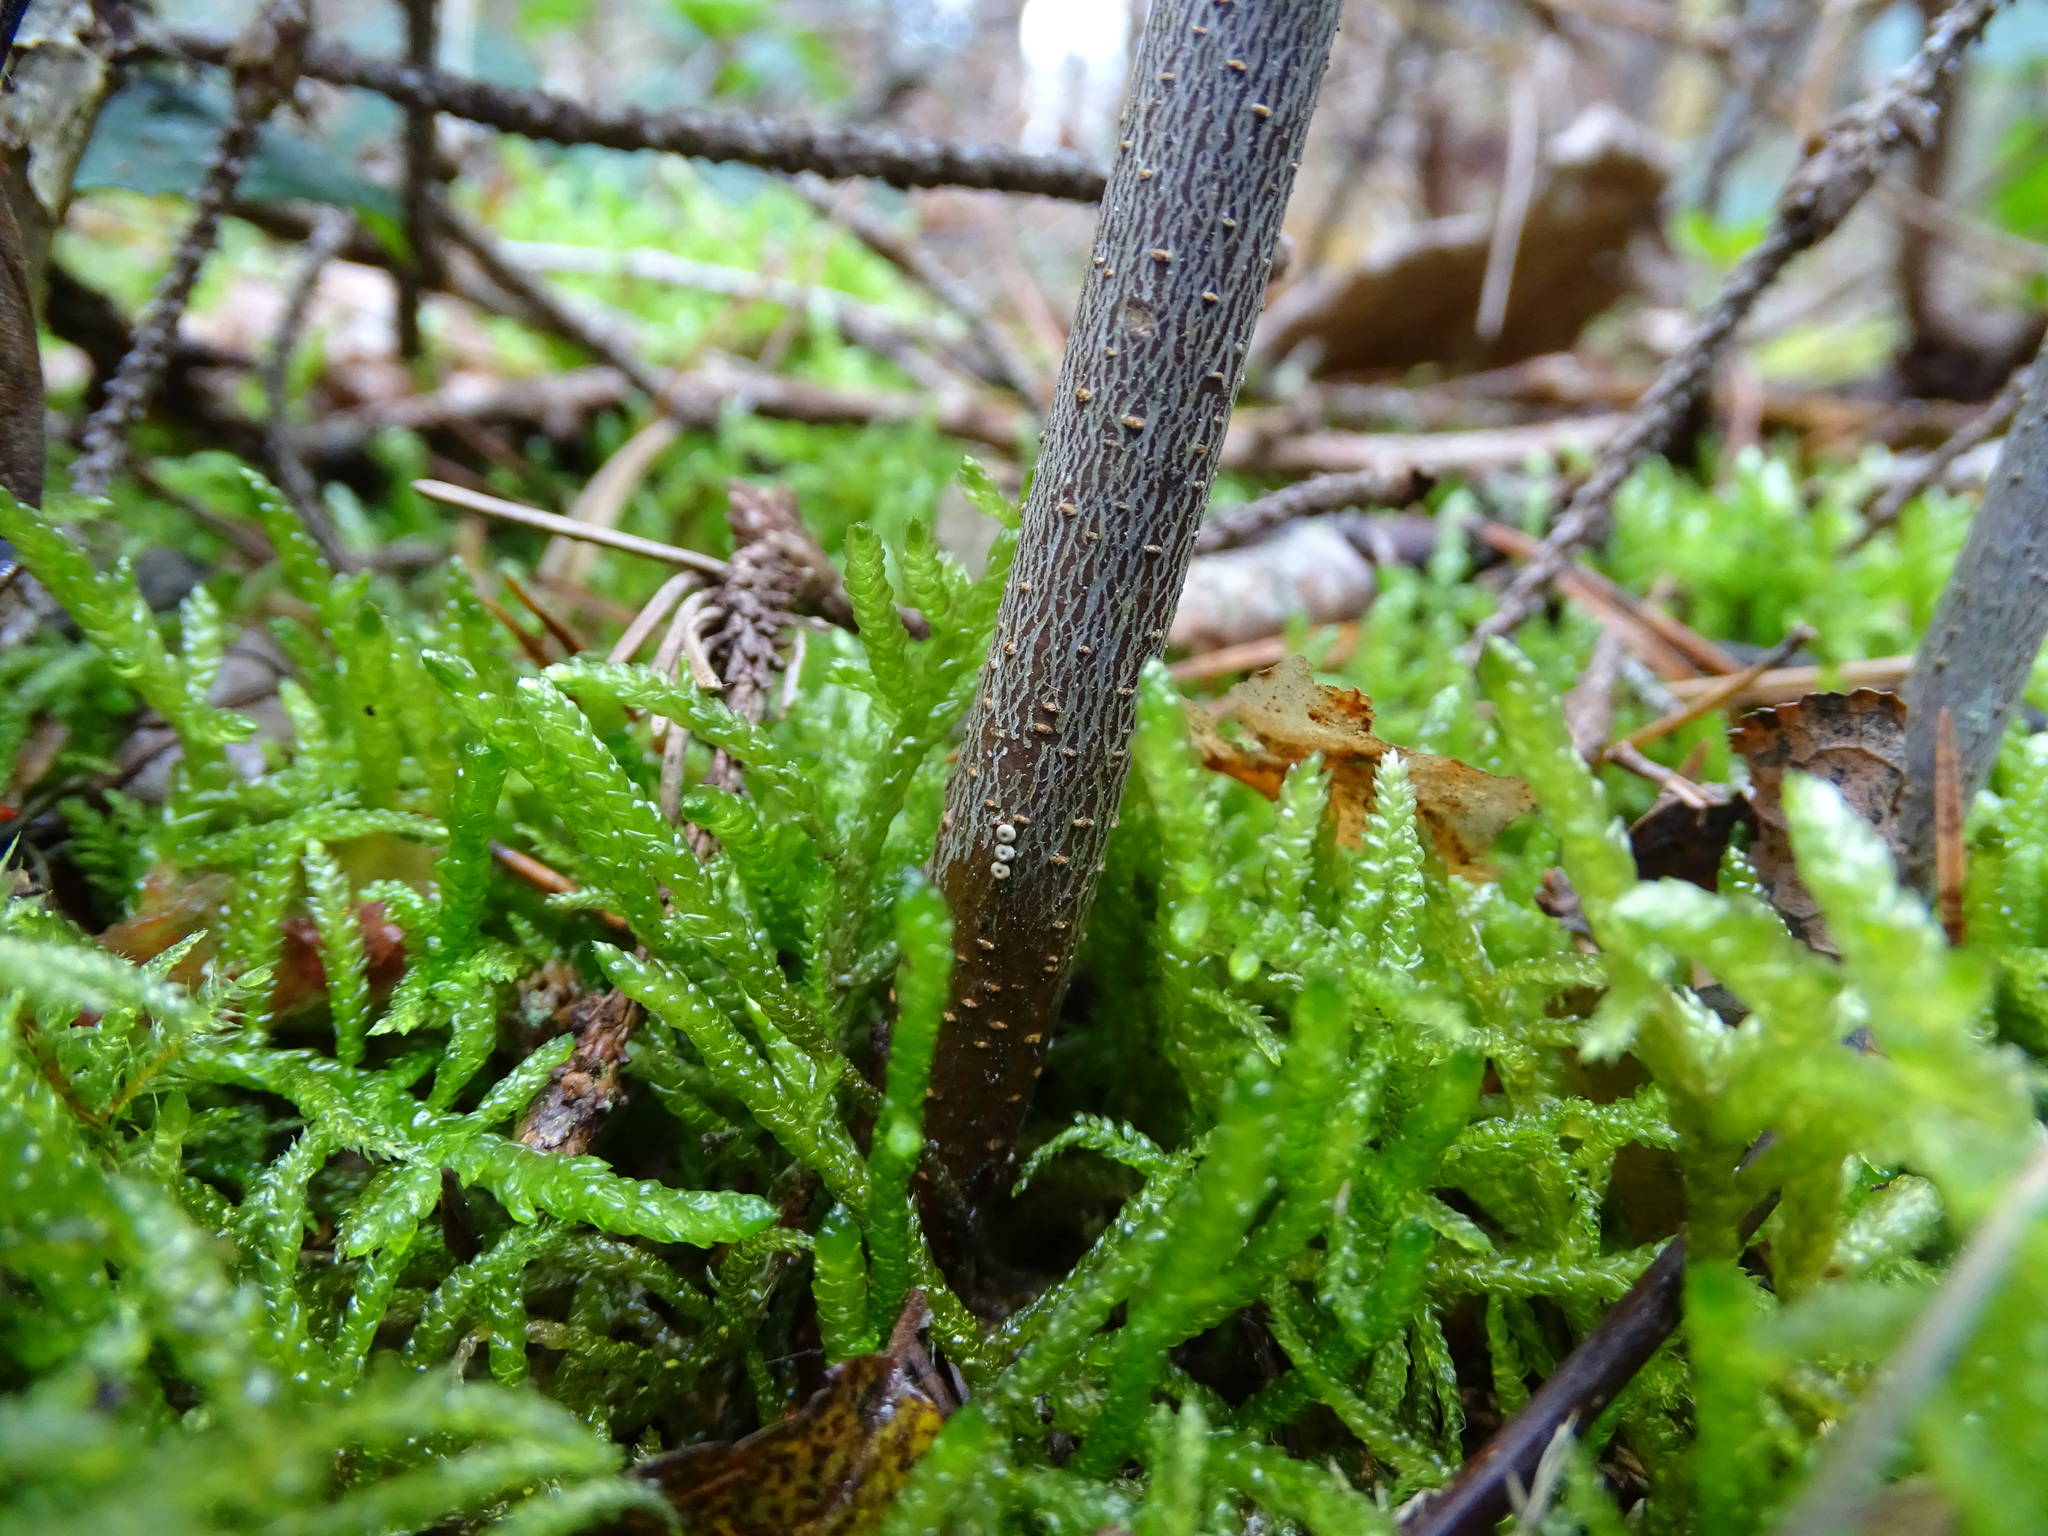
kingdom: Animalia
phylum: Arthropoda
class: Insecta
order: Lepidoptera
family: Lycaenidae
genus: Fixsenia
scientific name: Fixsenia pruni
